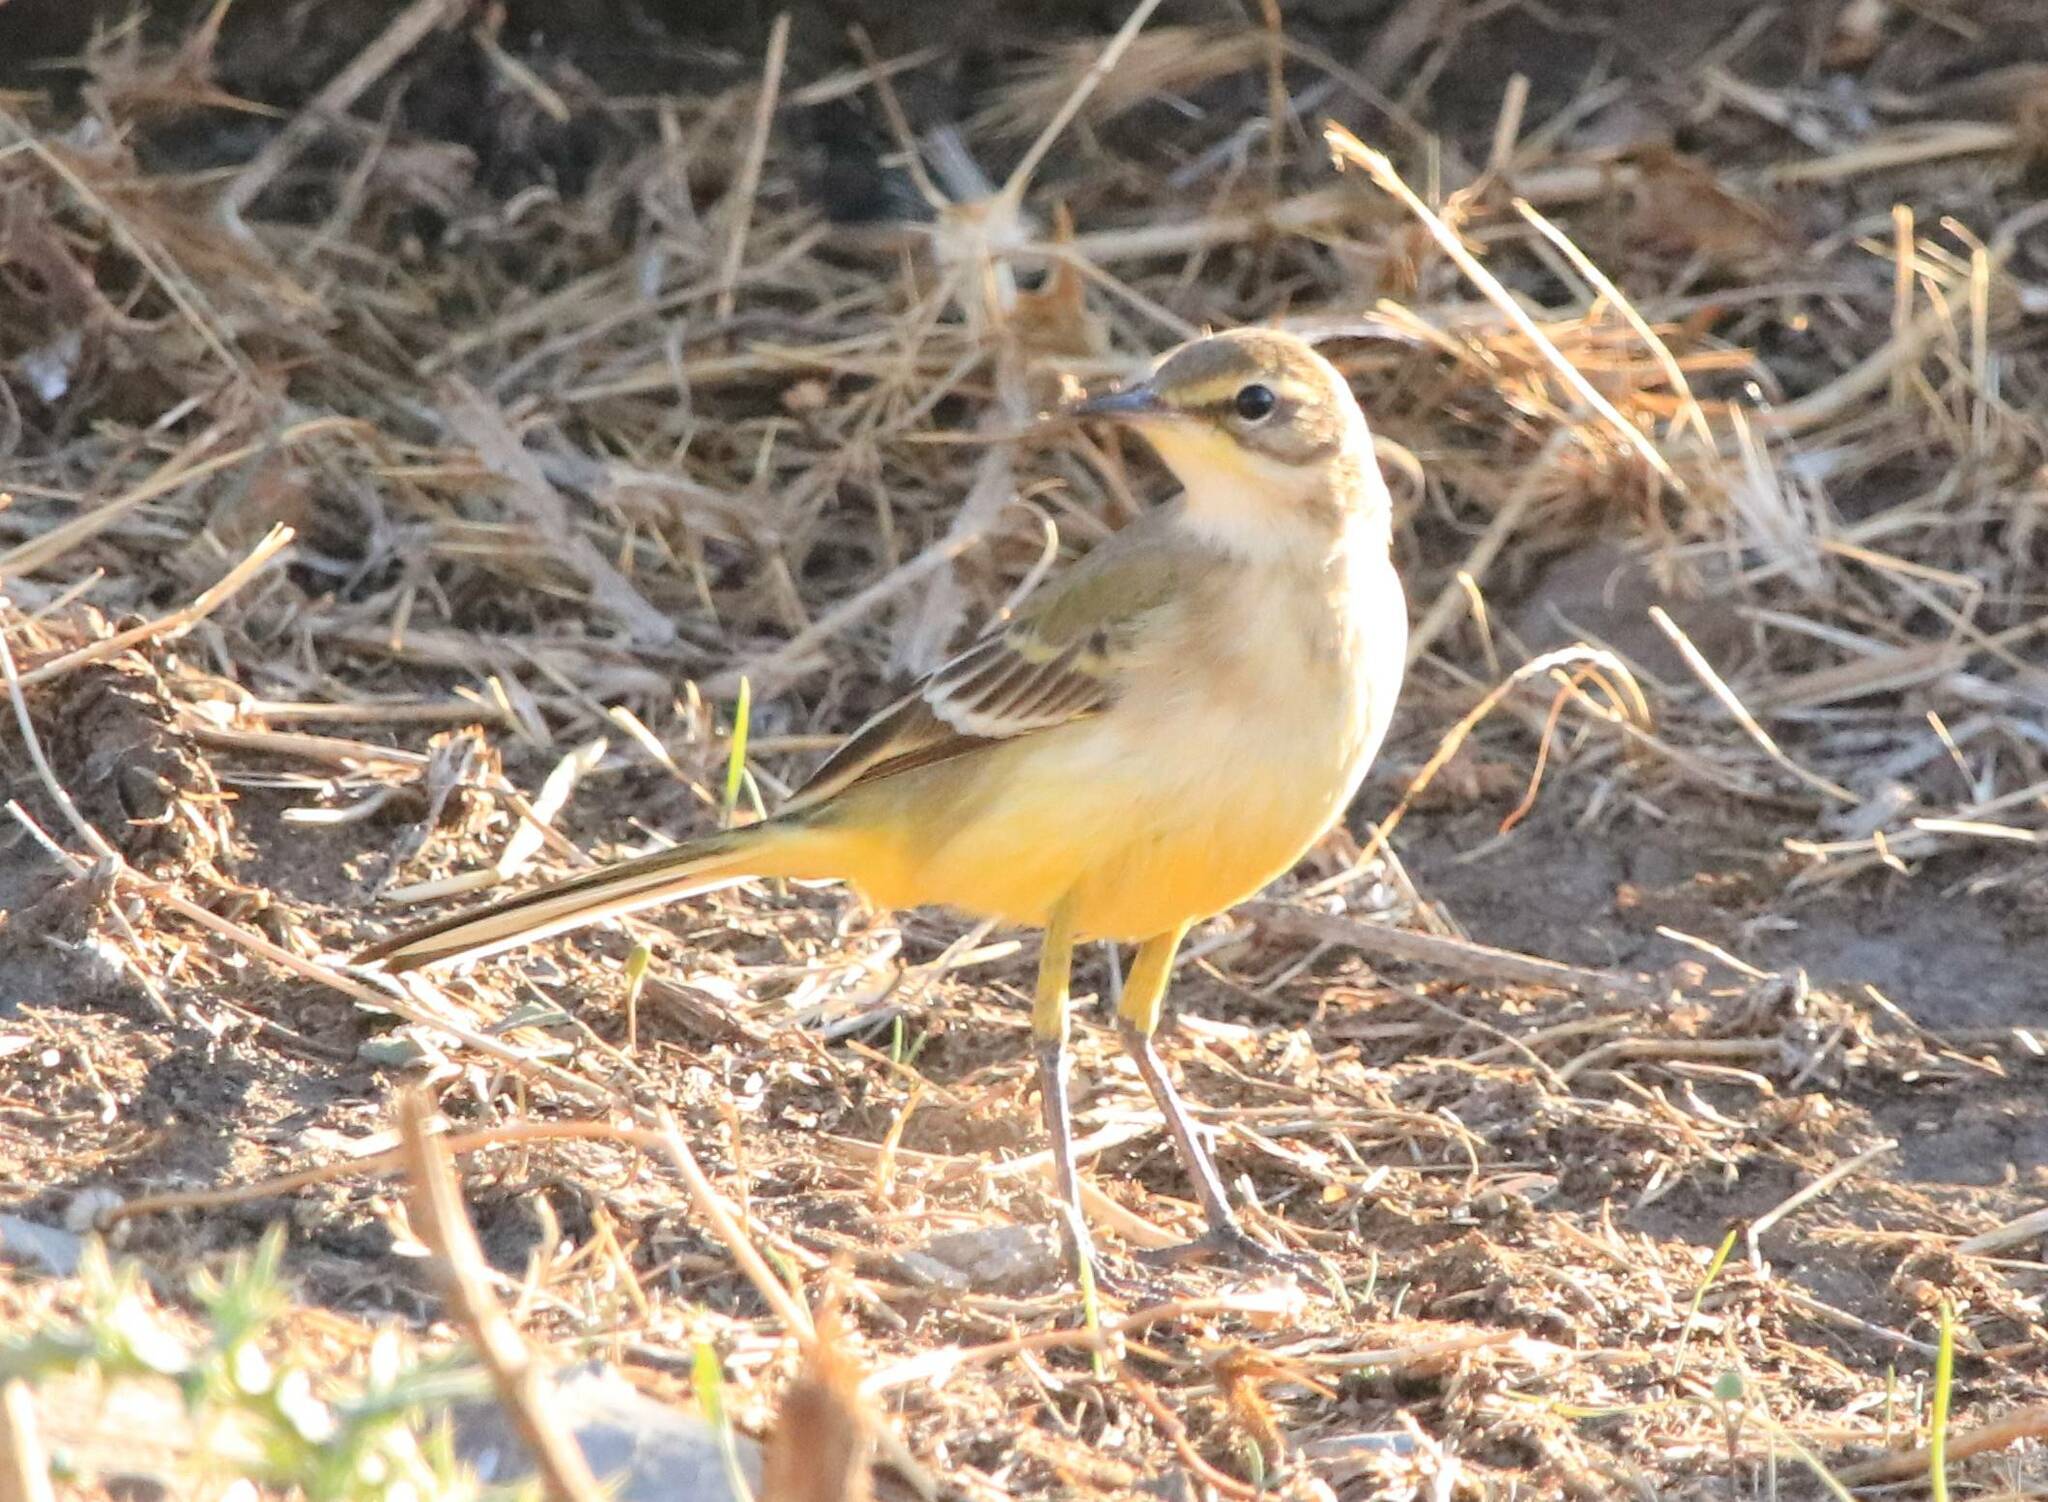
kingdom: Animalia
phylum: Chordata
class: Aves
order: Passeriformes
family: Motacillidae
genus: Motacilla
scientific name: Motacilla flava
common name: Western yellow wagtail
